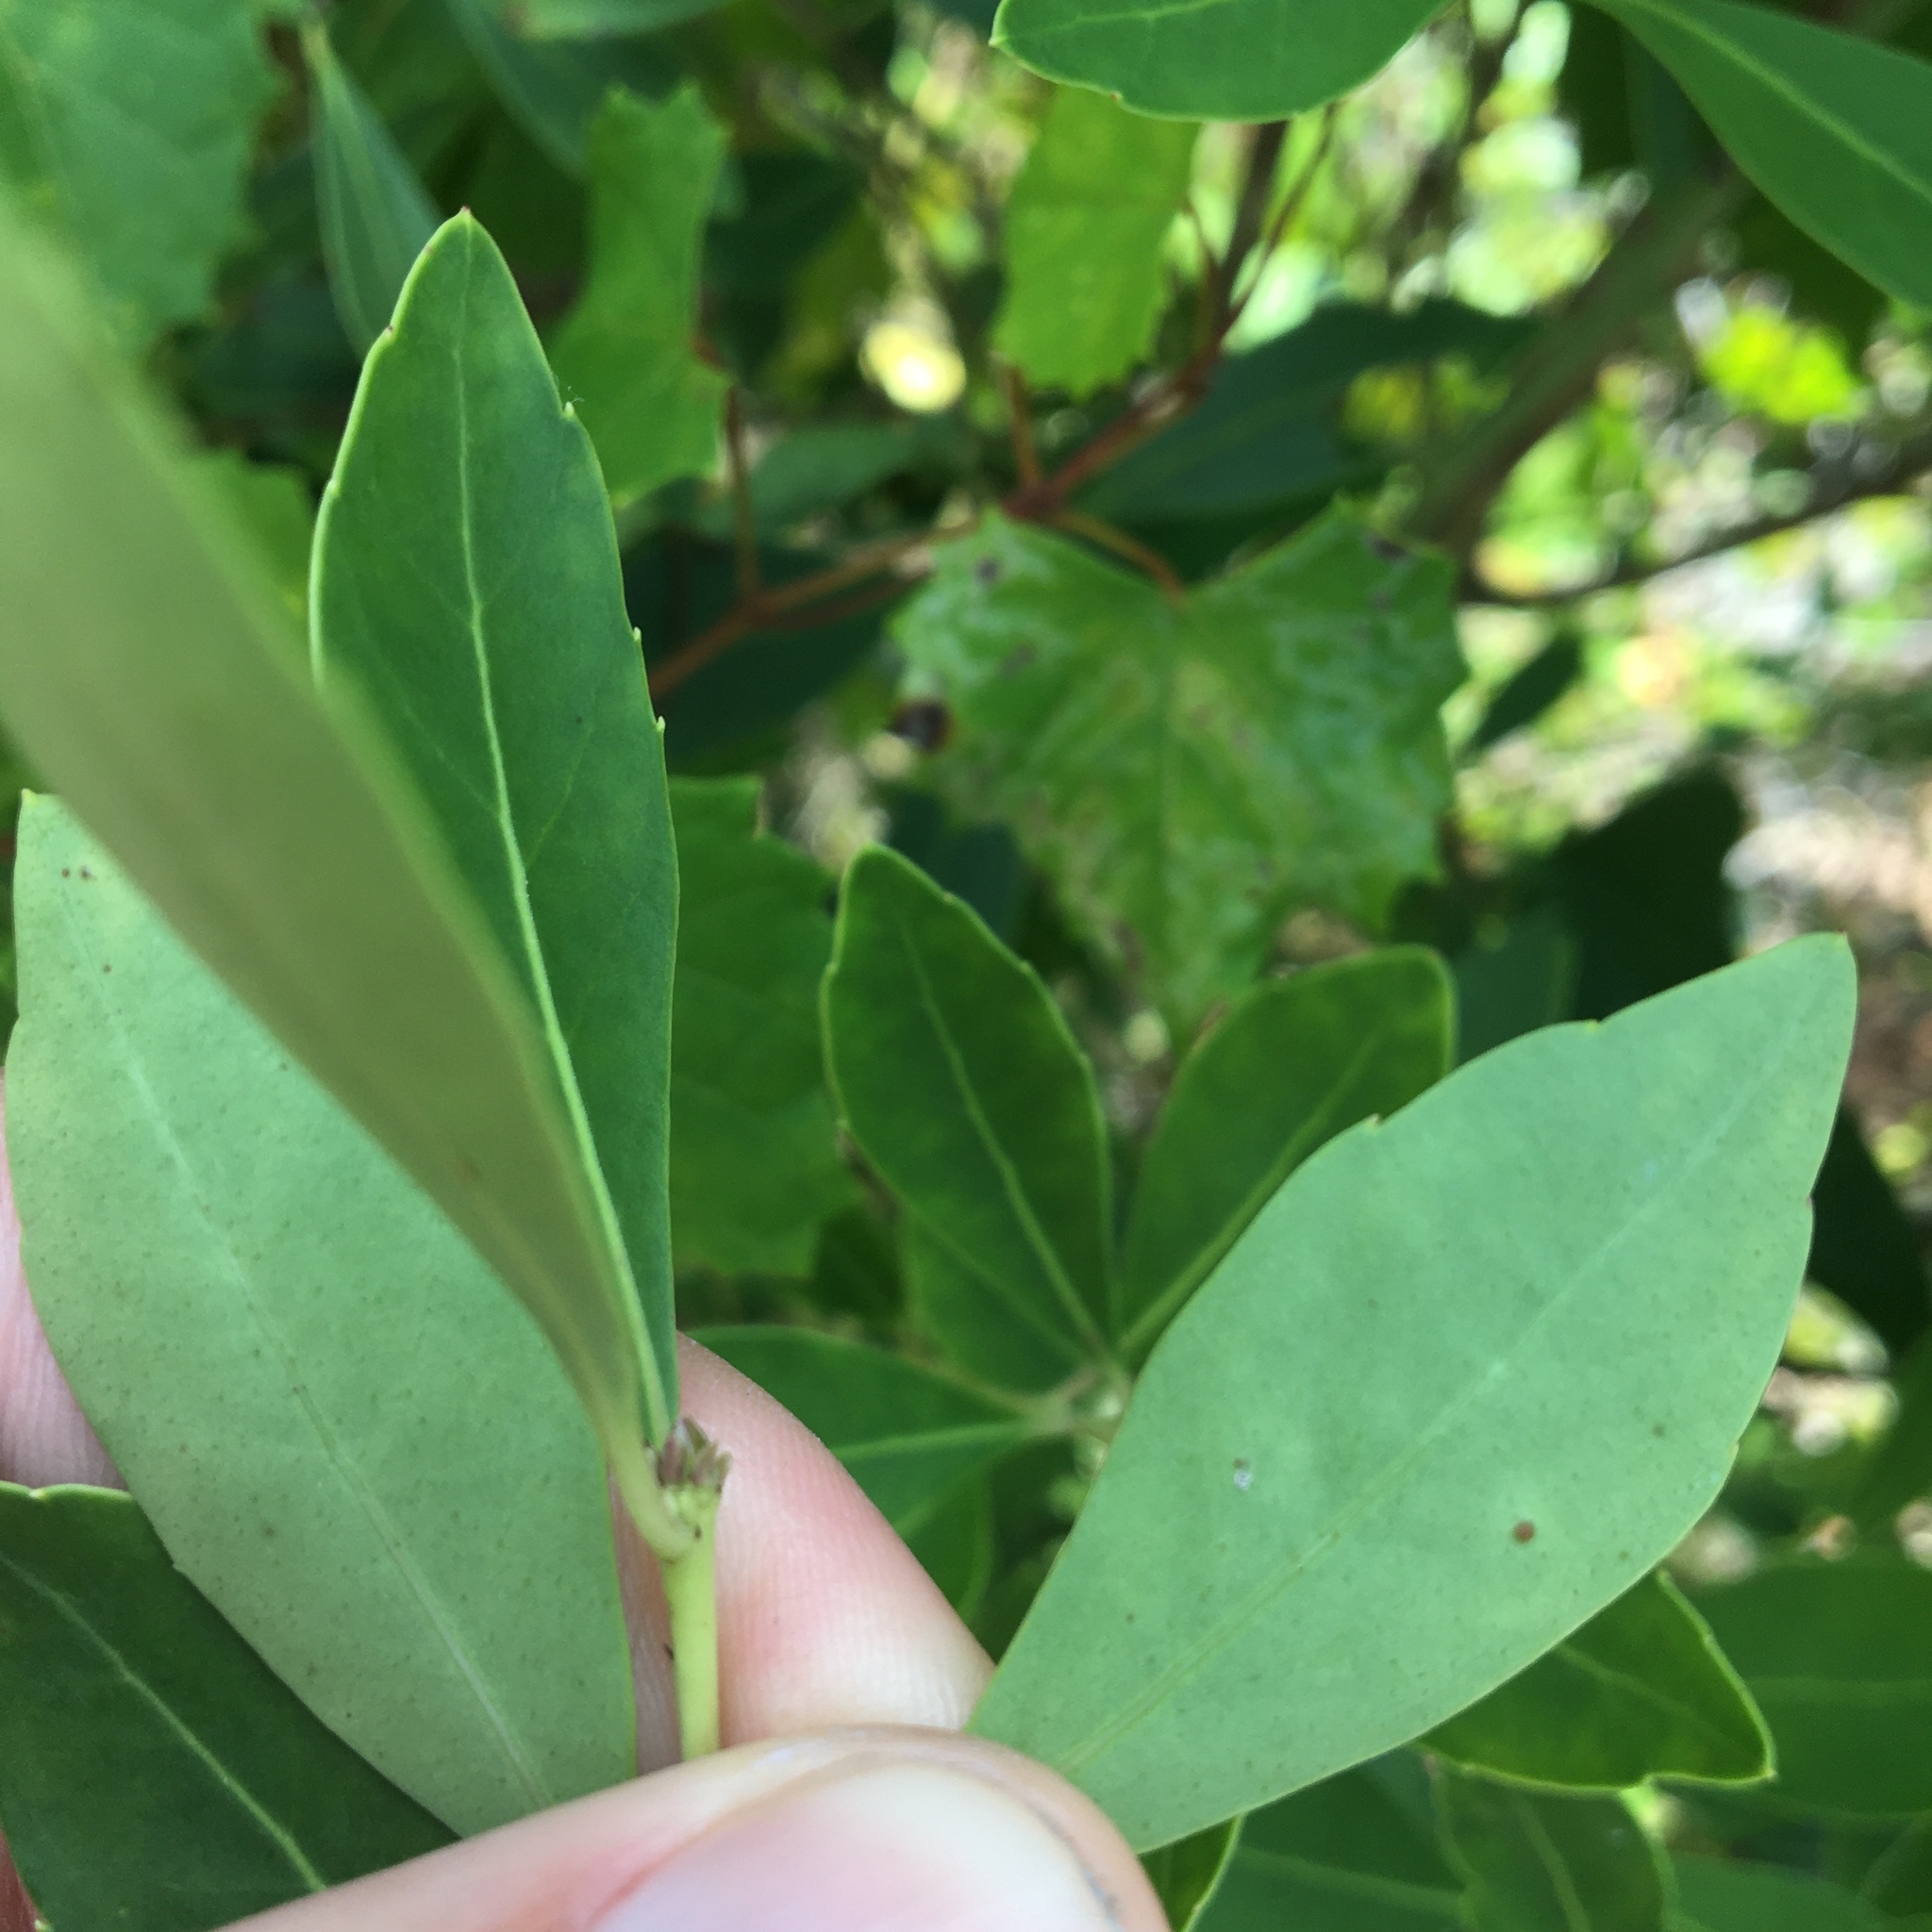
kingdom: Plantae
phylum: Tracheophyta
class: Magnoliopsida
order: Aquifoliales
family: Aquifoliaceae
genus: Ilex
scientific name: Ilex glabra
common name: Bitter gallberry
